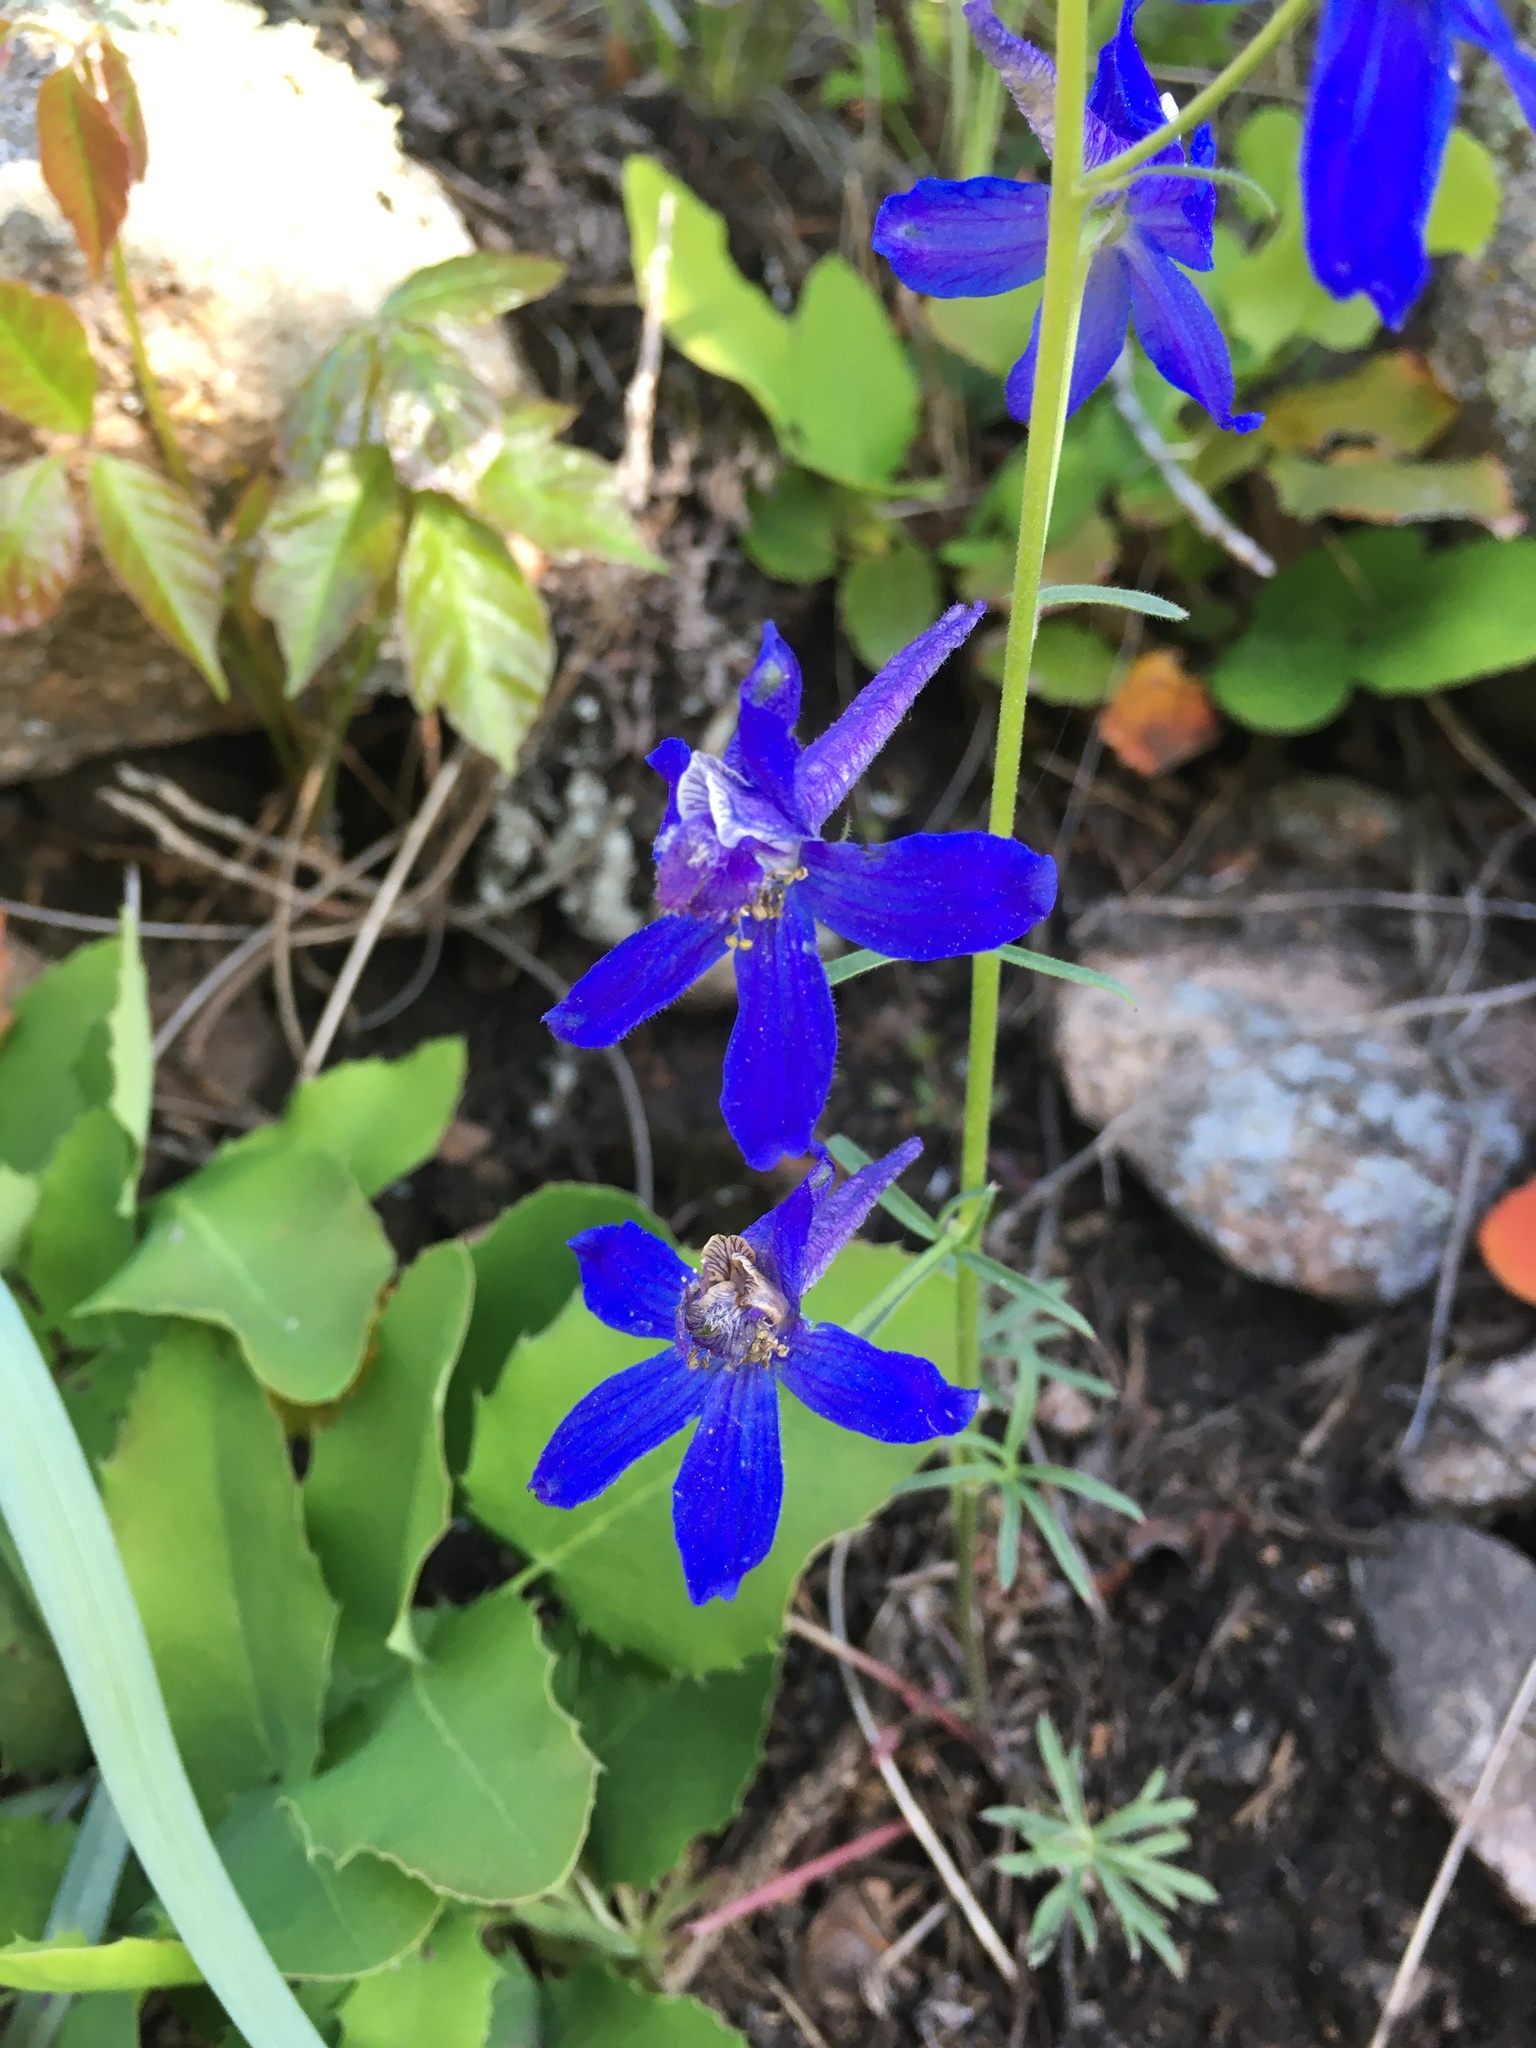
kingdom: Plantae
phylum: Tracheophyta
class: Magnoliopsida
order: Ranunculales
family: Ranunculaceae
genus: Delphinium
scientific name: Delphinium nuttallianum
